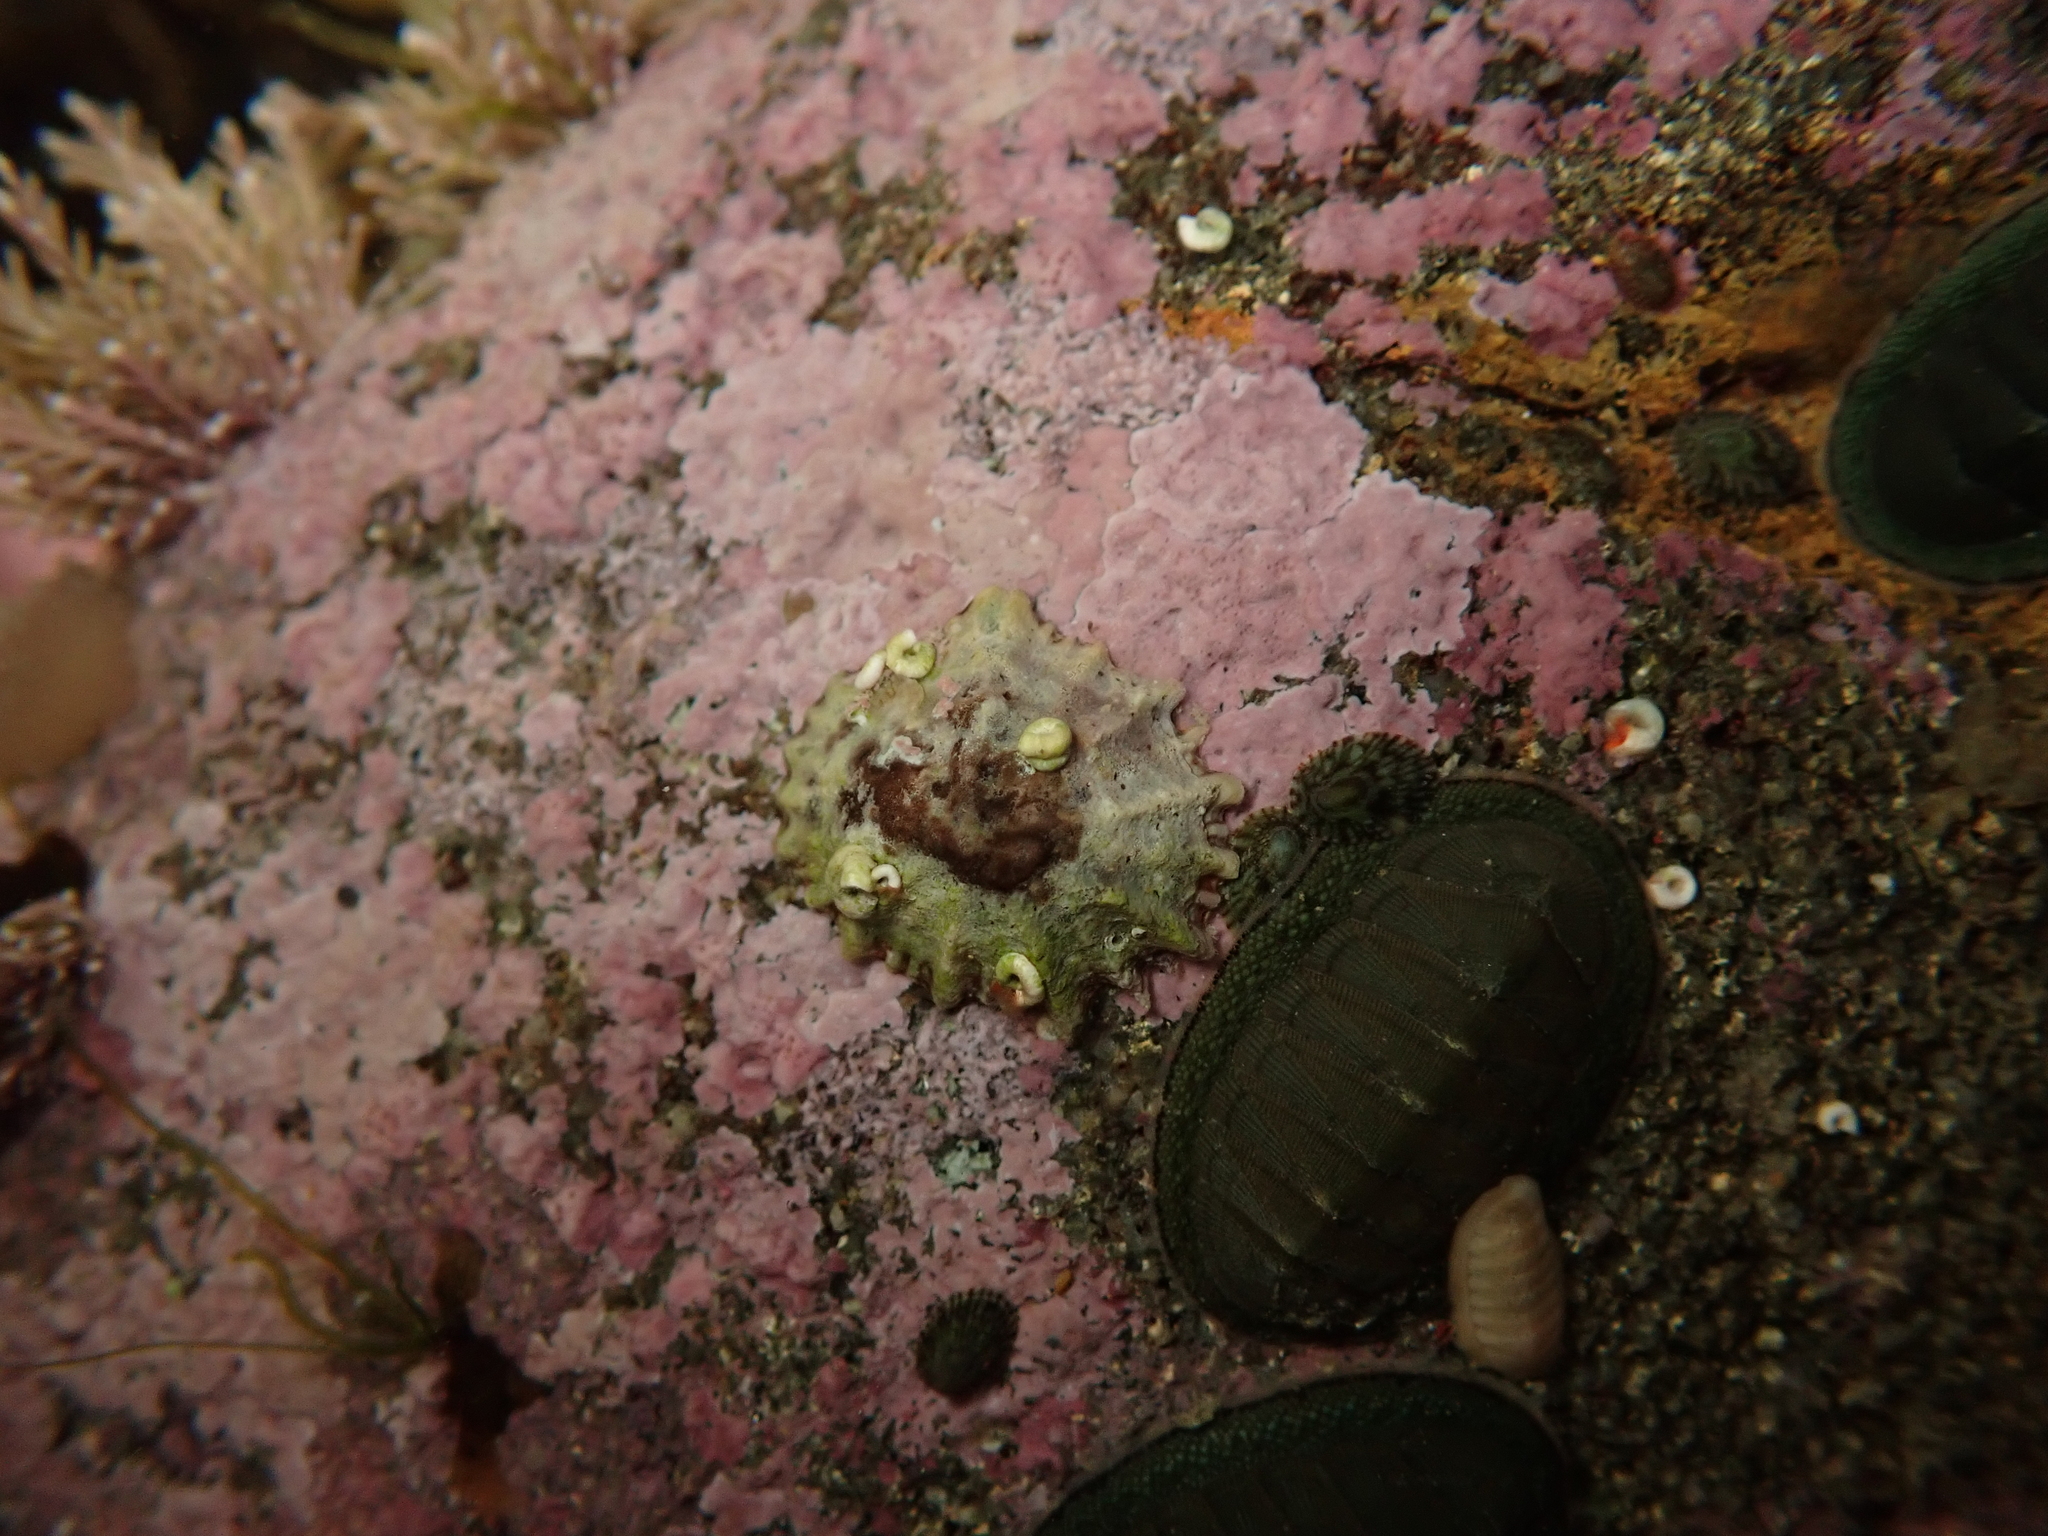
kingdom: Animalia
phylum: Mollusca
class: Gastropoda
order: Siphonariida
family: Siphonariidae
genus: Siphonaria
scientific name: Siphonaria australis
